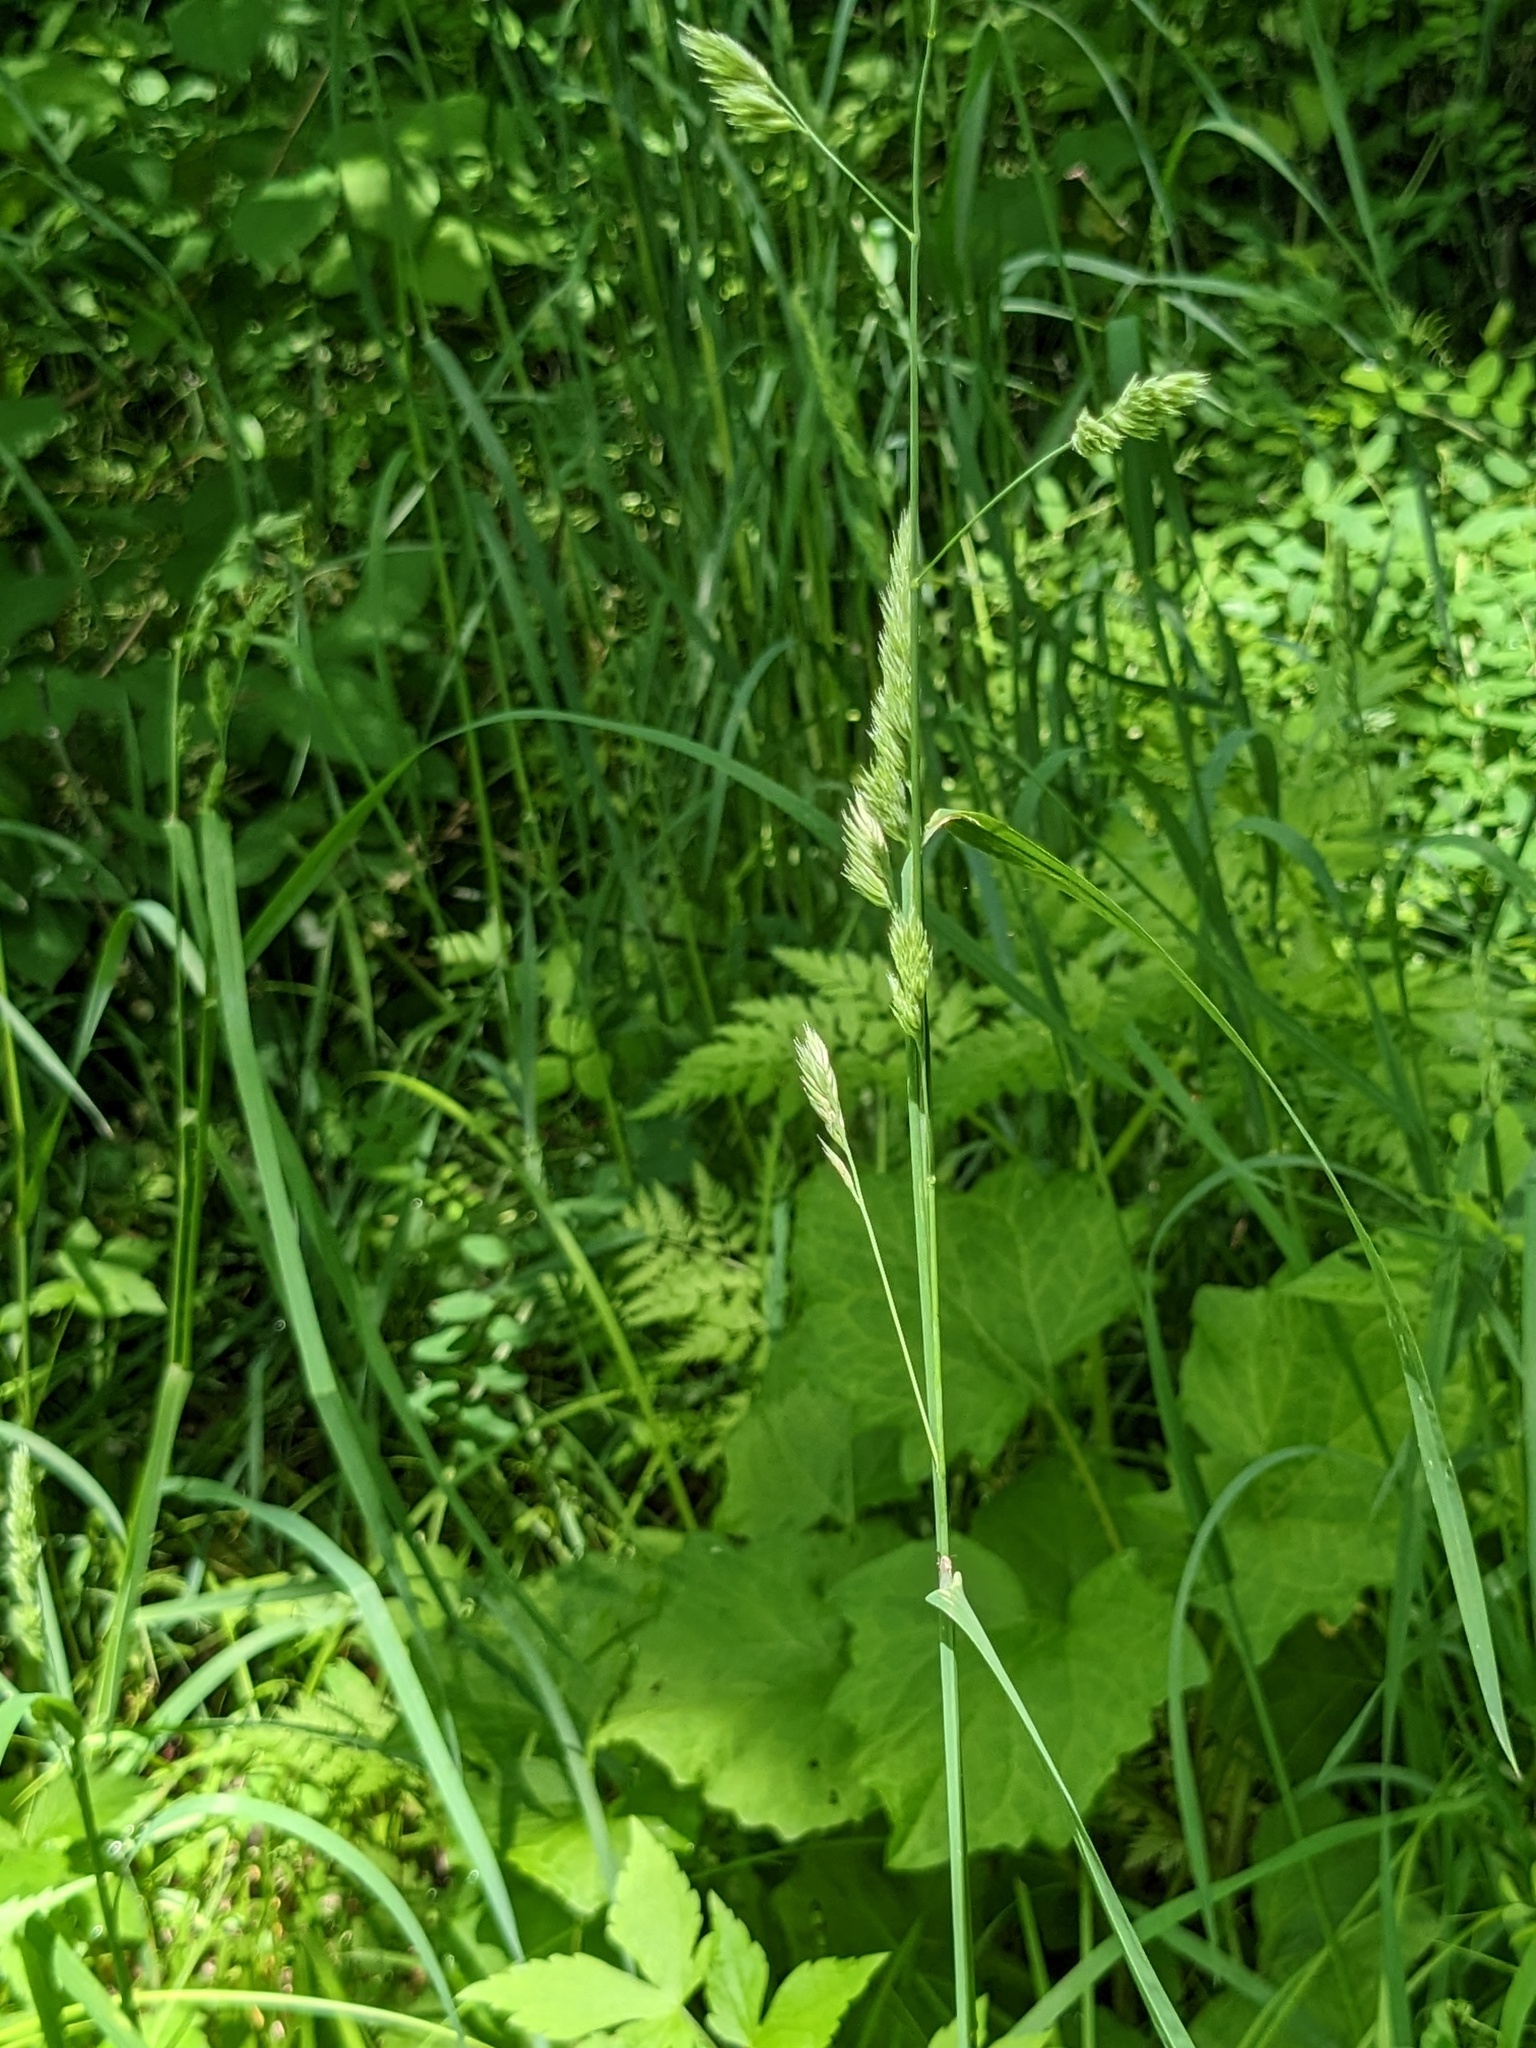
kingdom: Plantae
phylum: Tracheophyta
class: Liliopsida
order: Poales
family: Poaceae
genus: Dactylis
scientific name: Dactylis glomerata
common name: Orchardgrass
